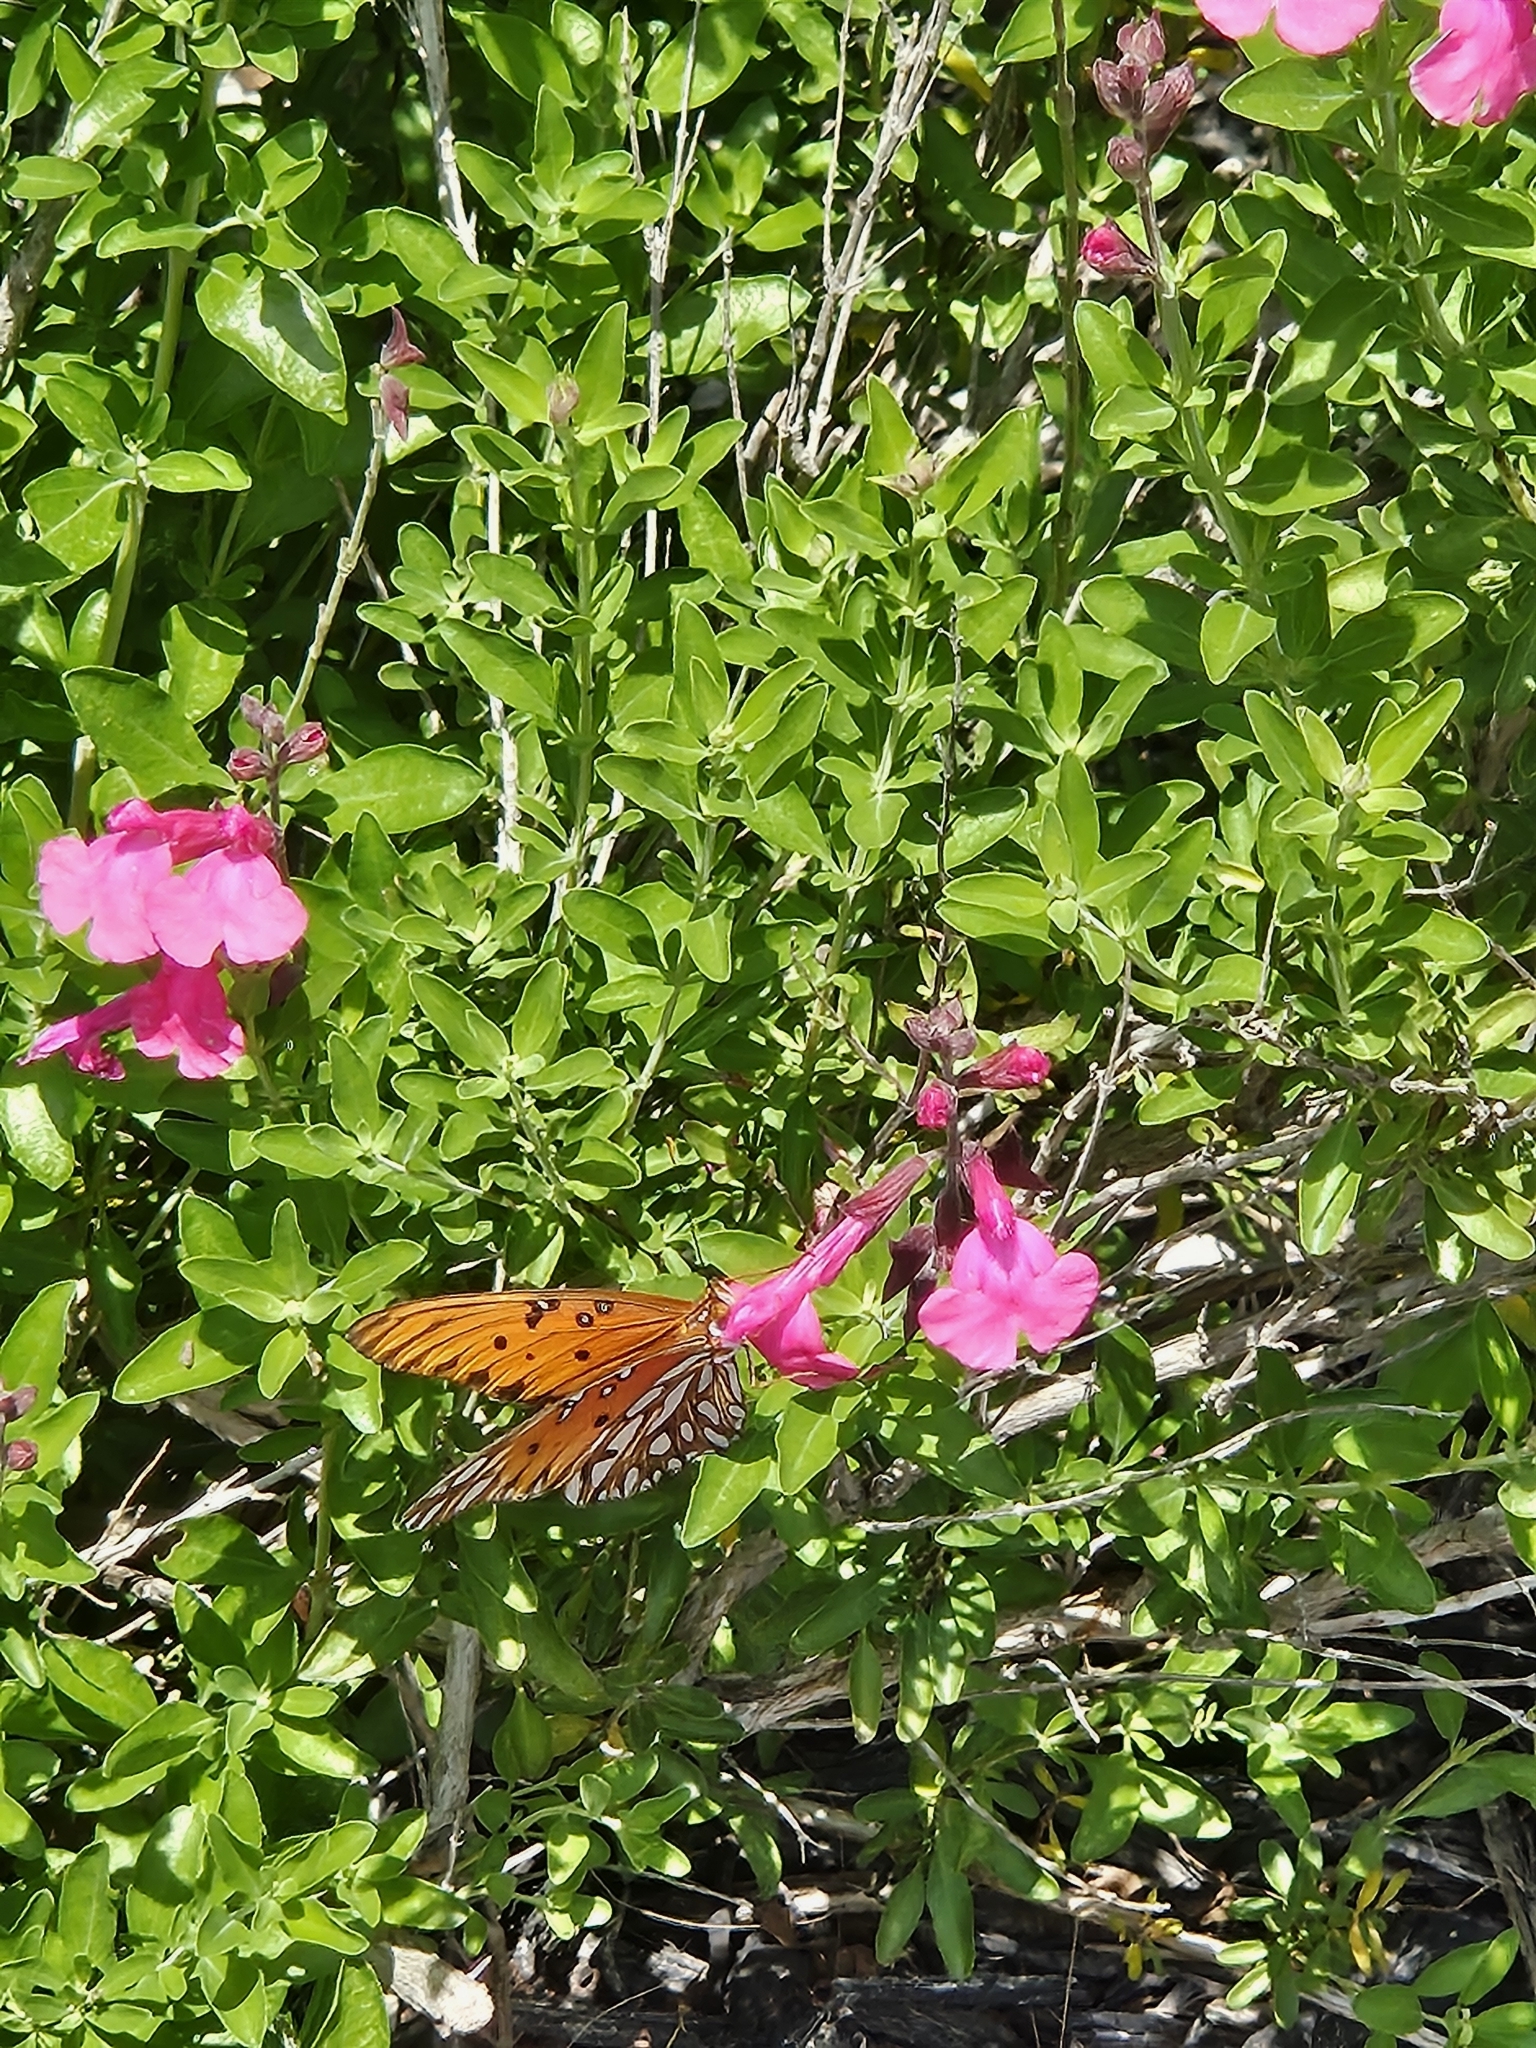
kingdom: Animalia
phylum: Arthropoda
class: Insecta
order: Lepidoptera
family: Nymphalidae
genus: Dione
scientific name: Dione vanillae
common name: Gulf fritillary
